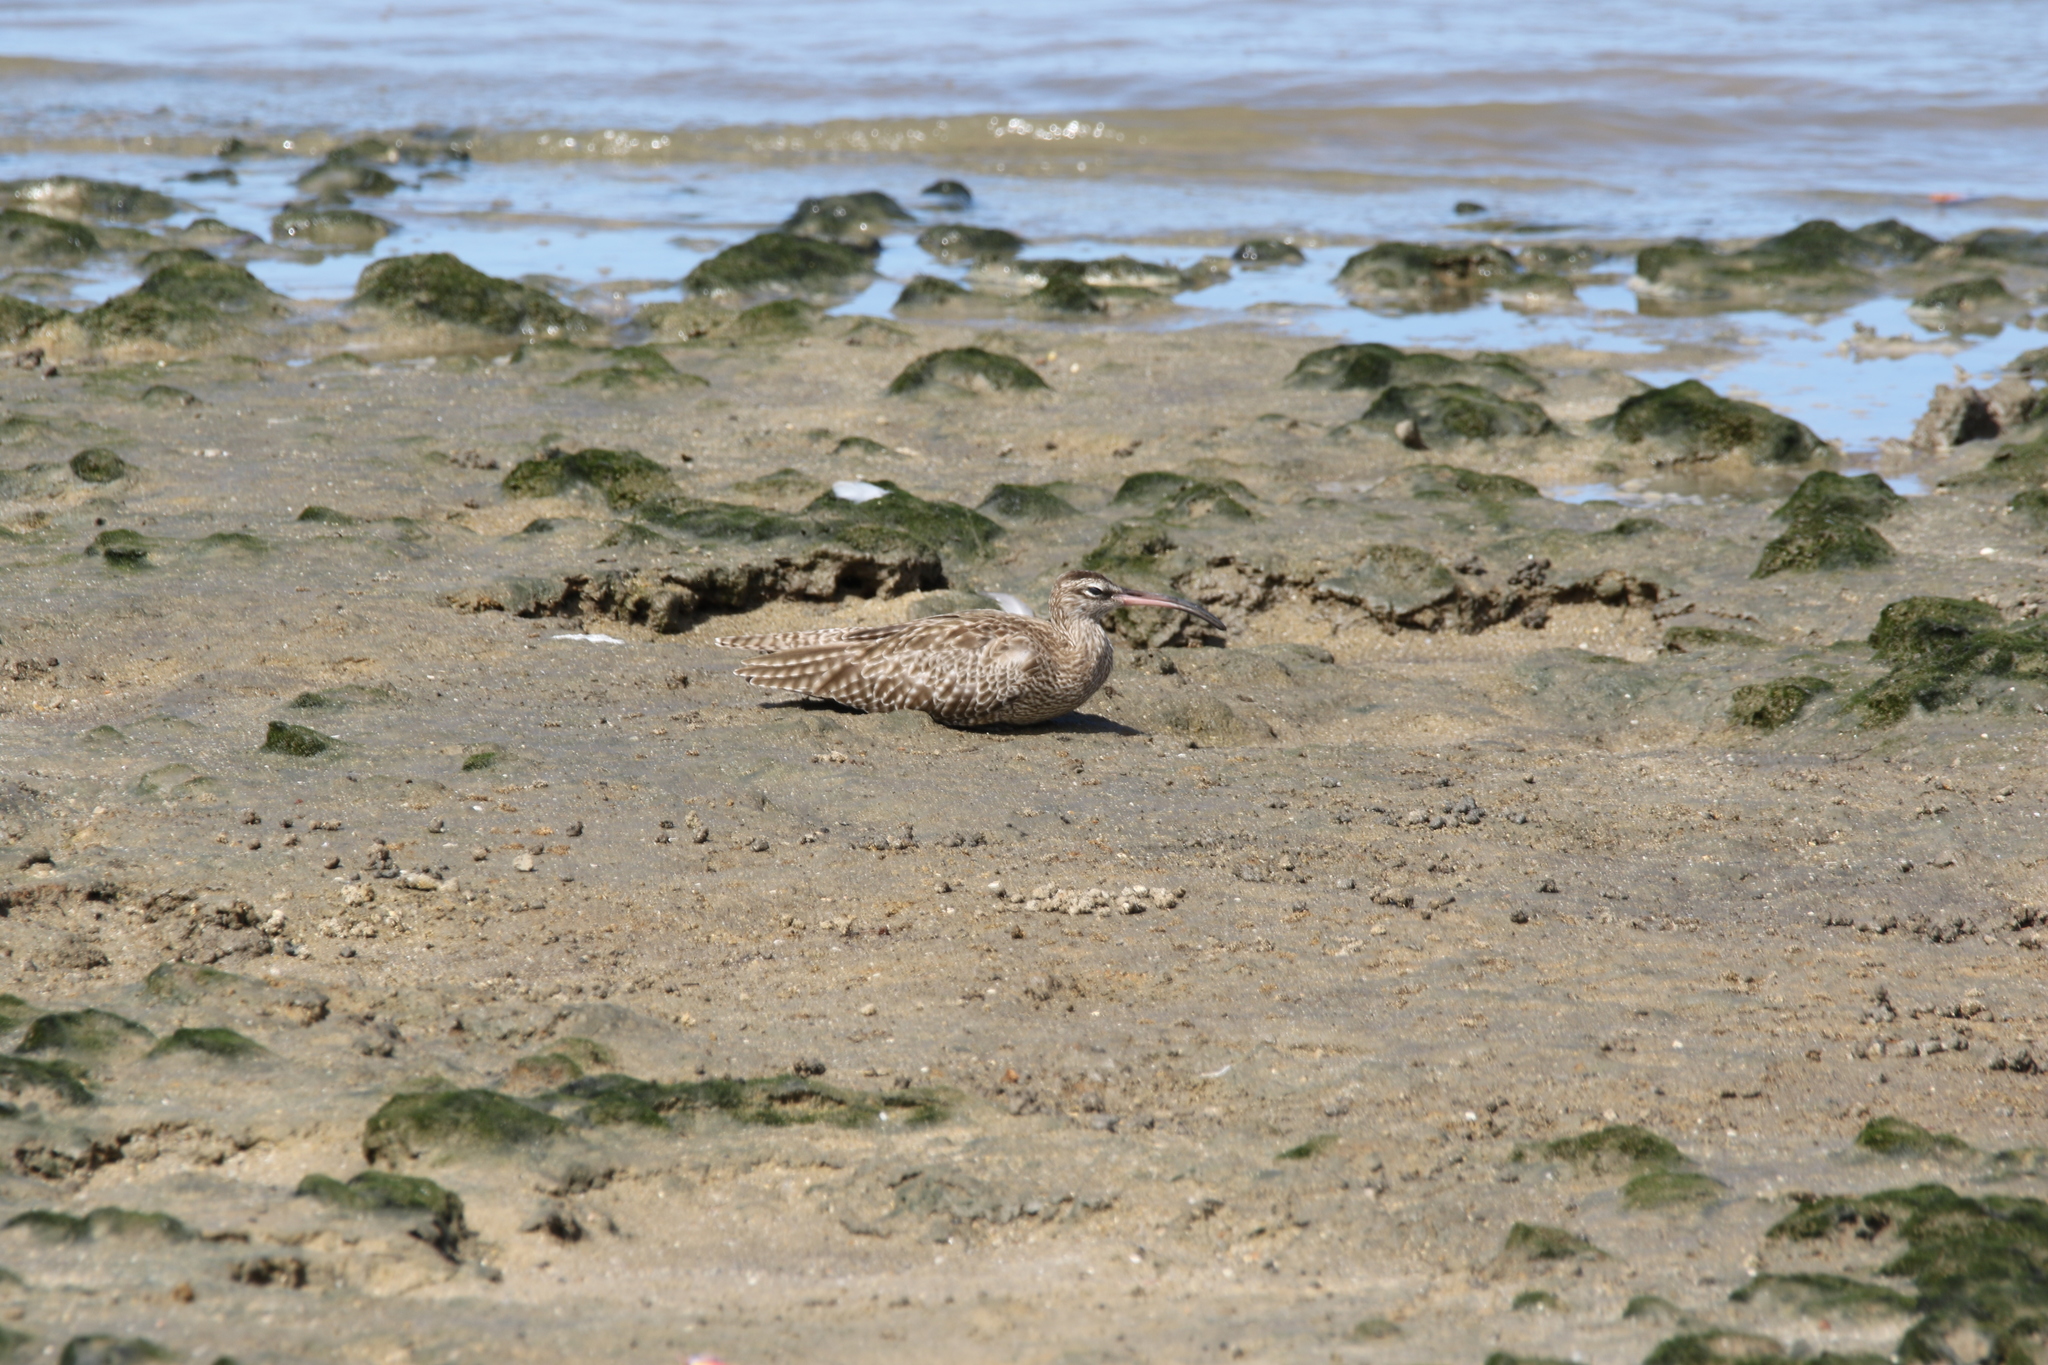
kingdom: Animalia
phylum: Chordata
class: Aves
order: Charadriiformes
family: Scolopacidae
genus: Numenius
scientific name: Numenius phaeopus
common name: Whimbrel
